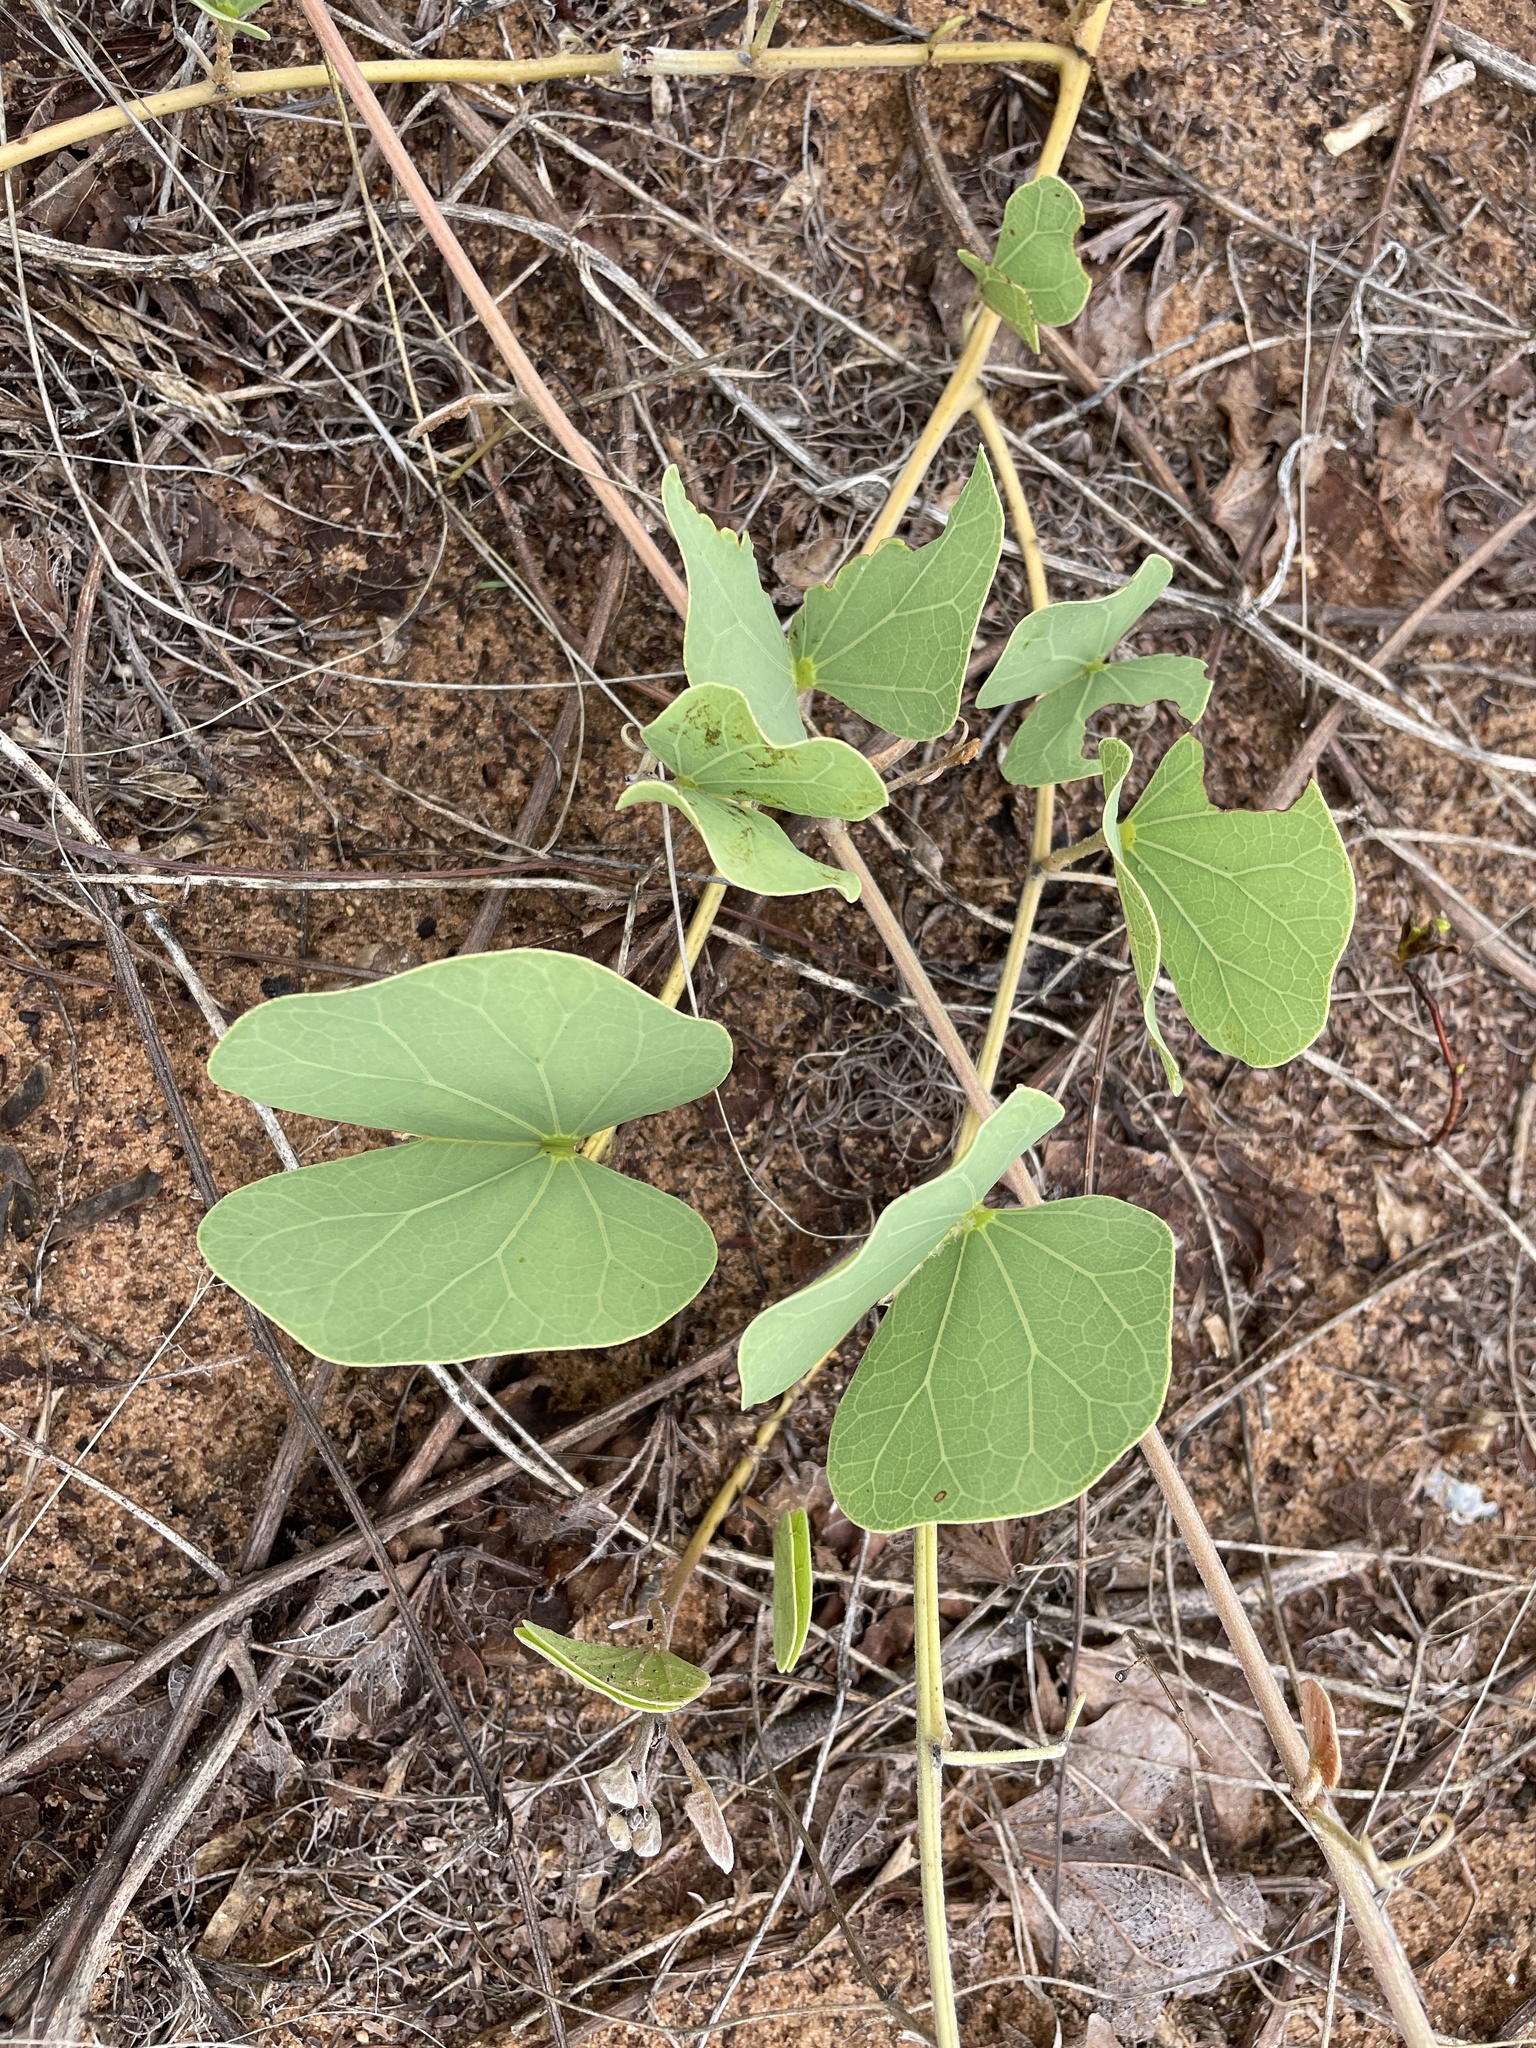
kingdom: Plantae
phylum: Tracheophyta
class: Magnoliopsida
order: Fabales
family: Fabaceae
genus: Tylosema
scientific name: Tylosema esculentum
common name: Marama-bean
